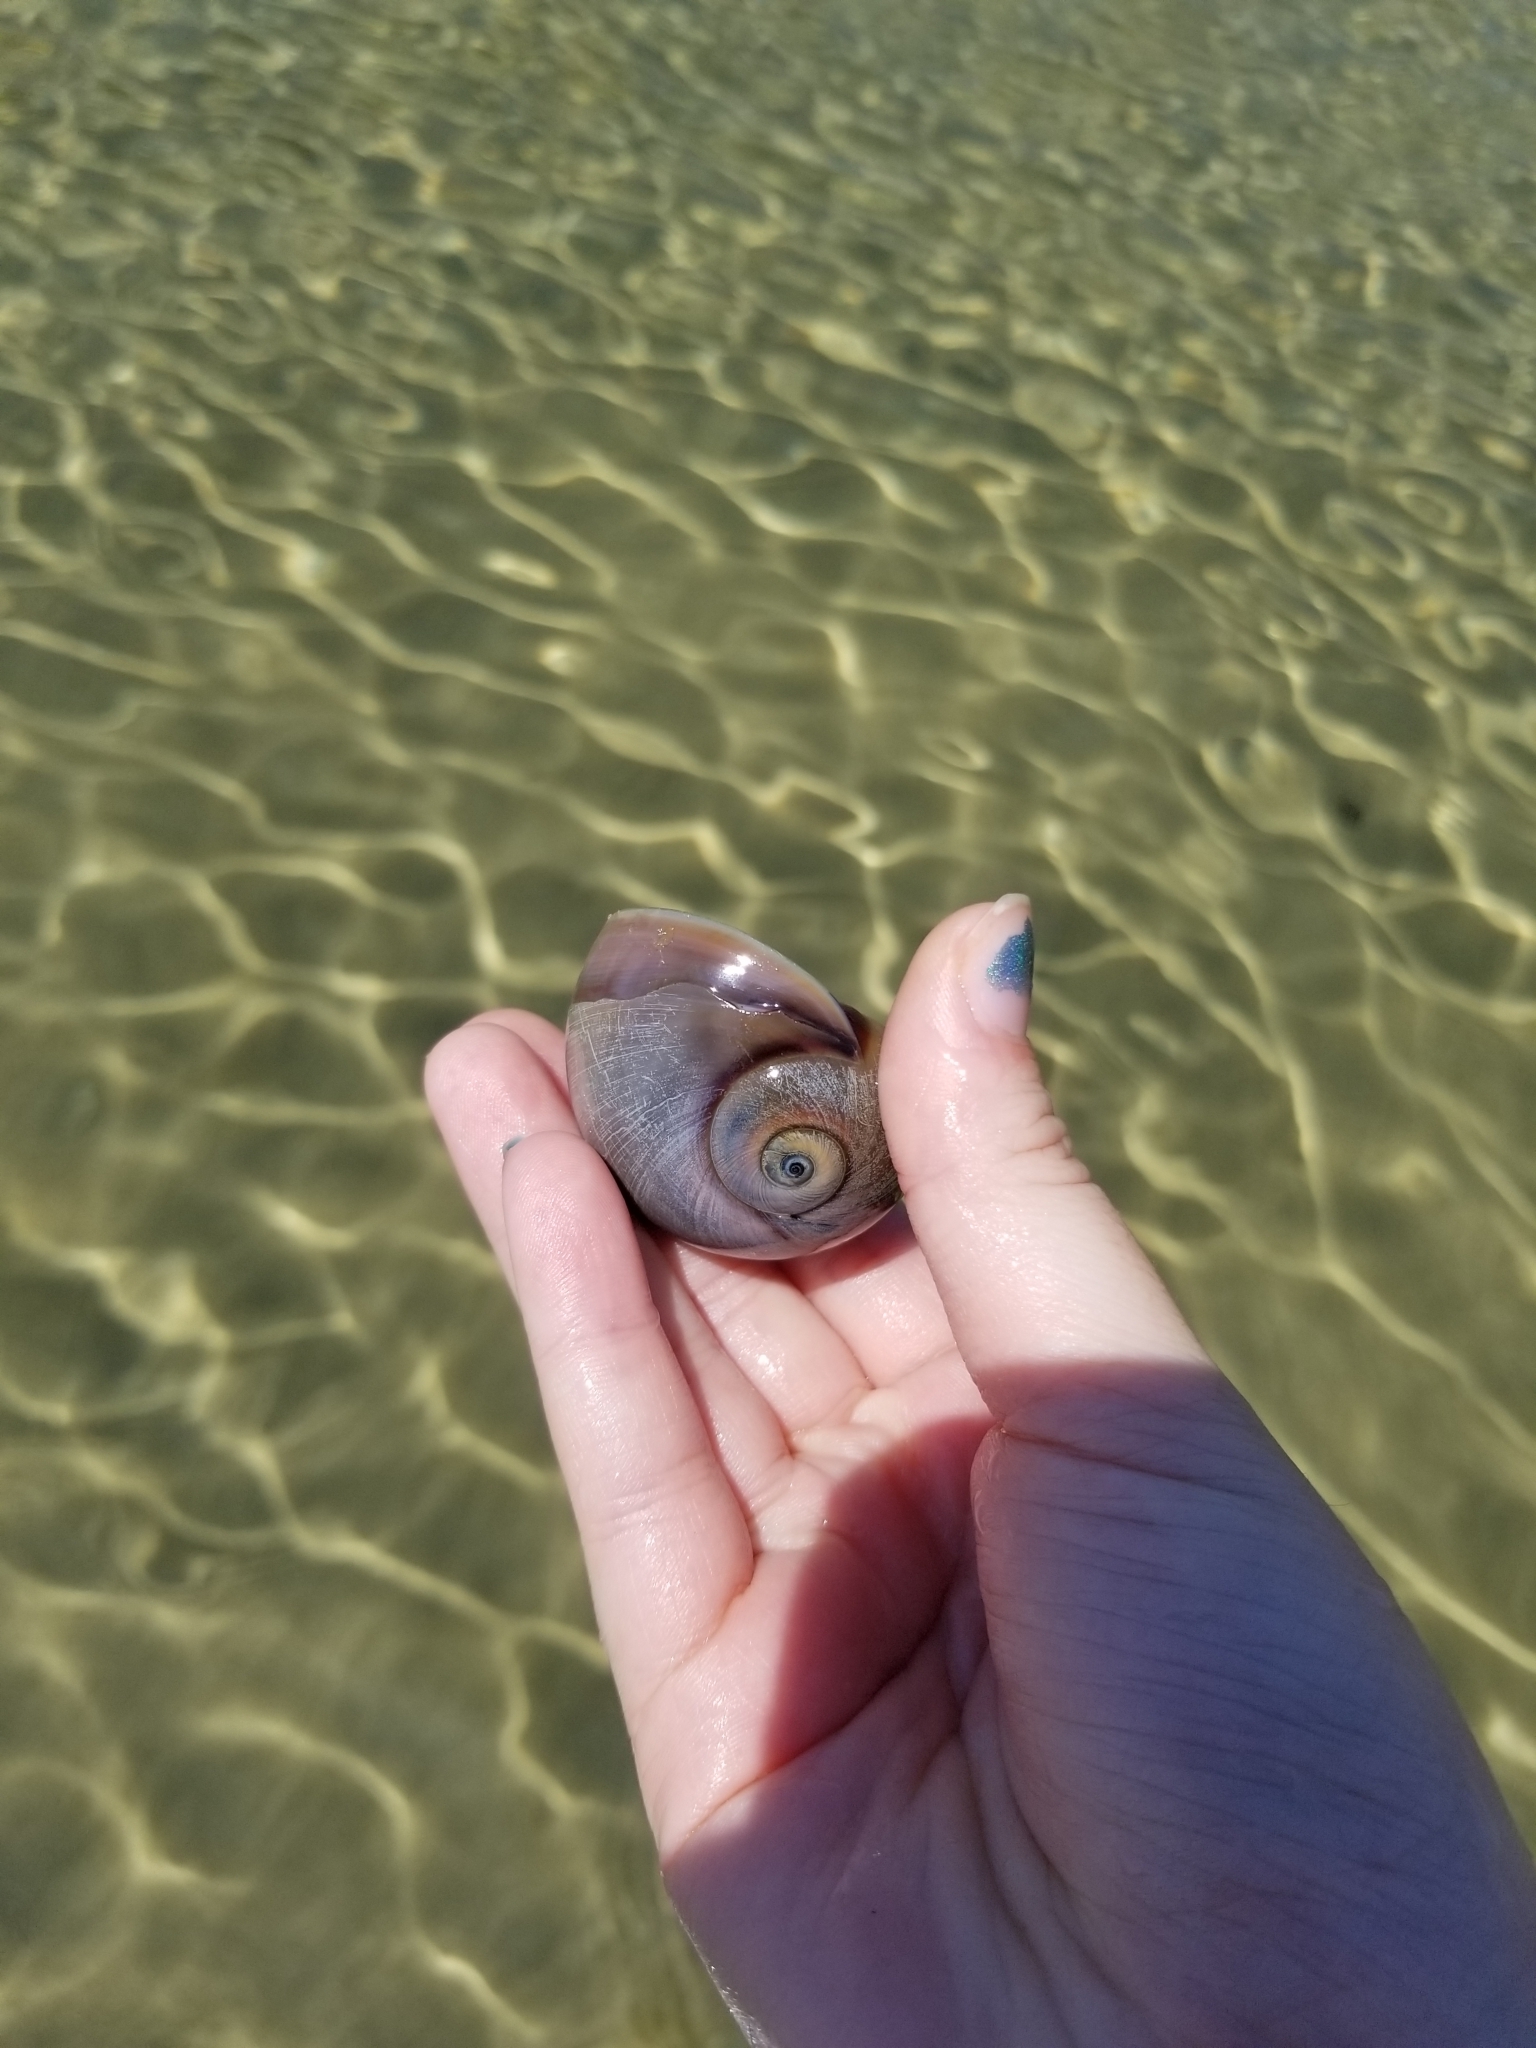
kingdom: Animalia
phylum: Mollusca
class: Gastropoda
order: Littorinimorpha
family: Naticidae
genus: Neverita
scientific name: Neverita duplicata
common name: Lobed moonsnail
